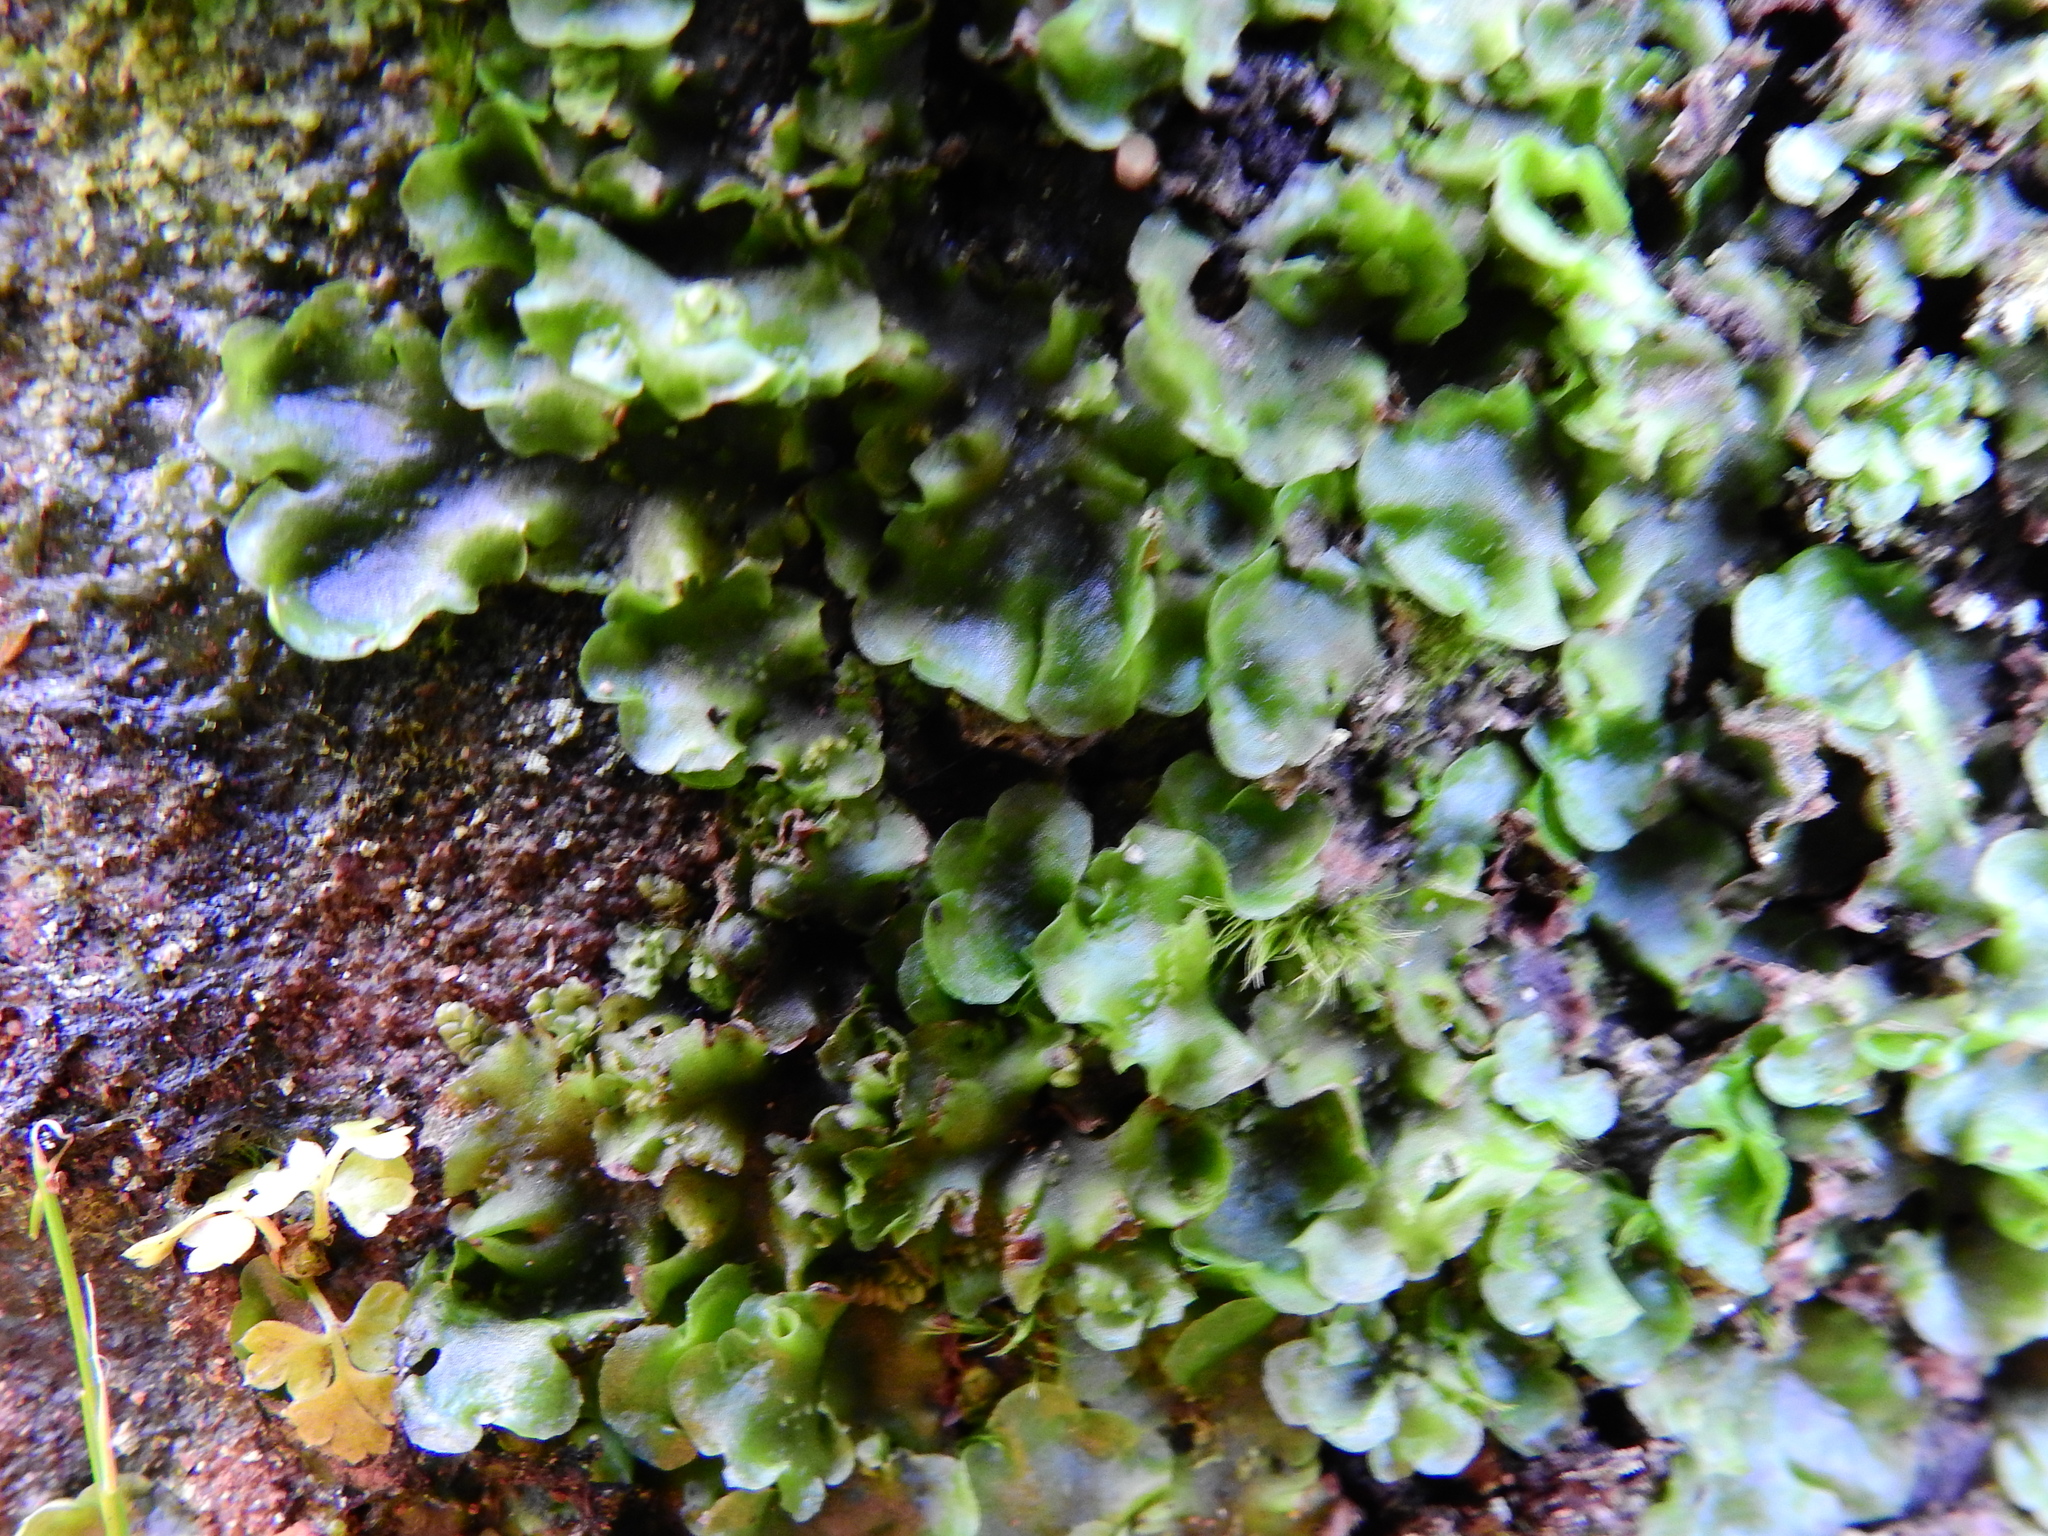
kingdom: Plantae
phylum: Marchantiophyta
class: Jungermanniopsida
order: Pelliales
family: Pelliaceae
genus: Pellia
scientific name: Pellia neesiana
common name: Nees  pellia
